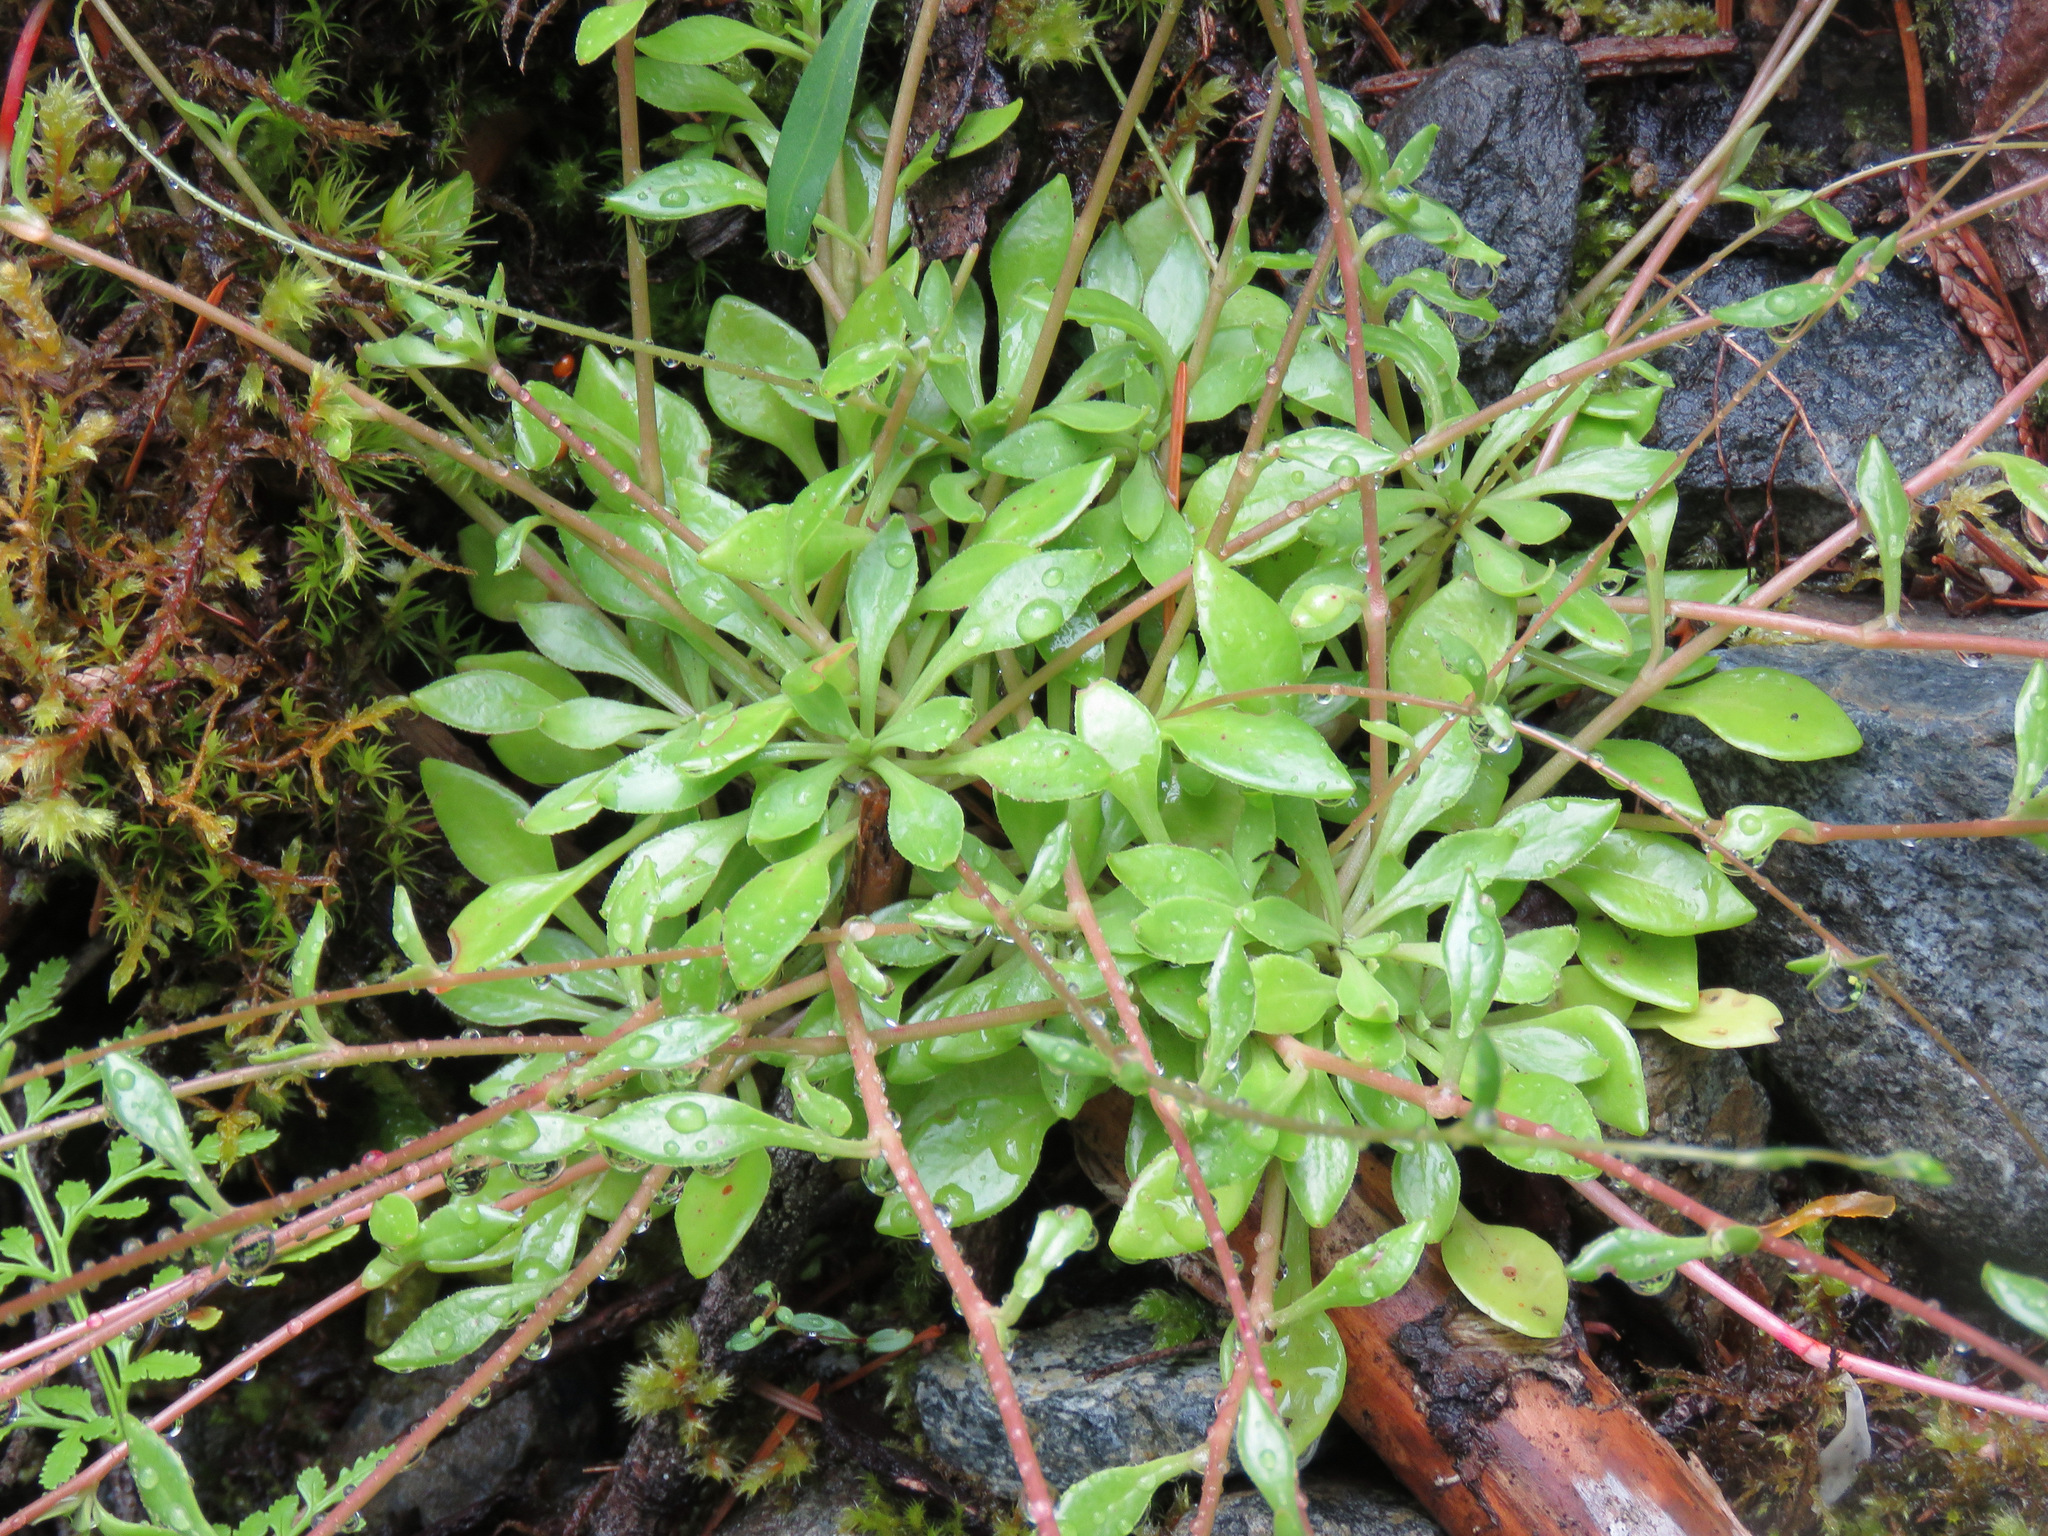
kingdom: Plantae
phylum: Tracheophyta
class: Magnoliopsida
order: Caryophyllales
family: Montiaceae
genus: Montia
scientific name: Montia parvifolia
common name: Small-leaved blinks
